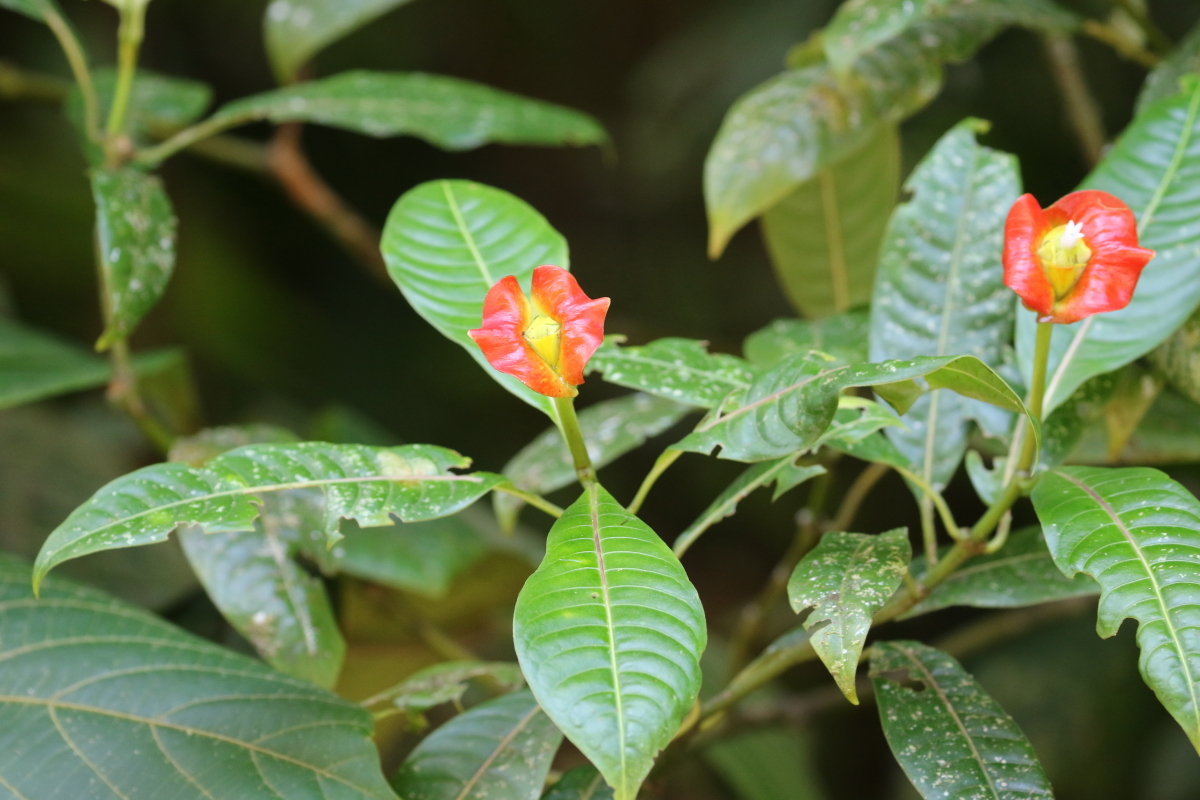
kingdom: Plantae
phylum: Tracheophyta
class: Magnoliopsida
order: Gentianales
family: Rubiaceae
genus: Palicourea
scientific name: Palicourea elata
